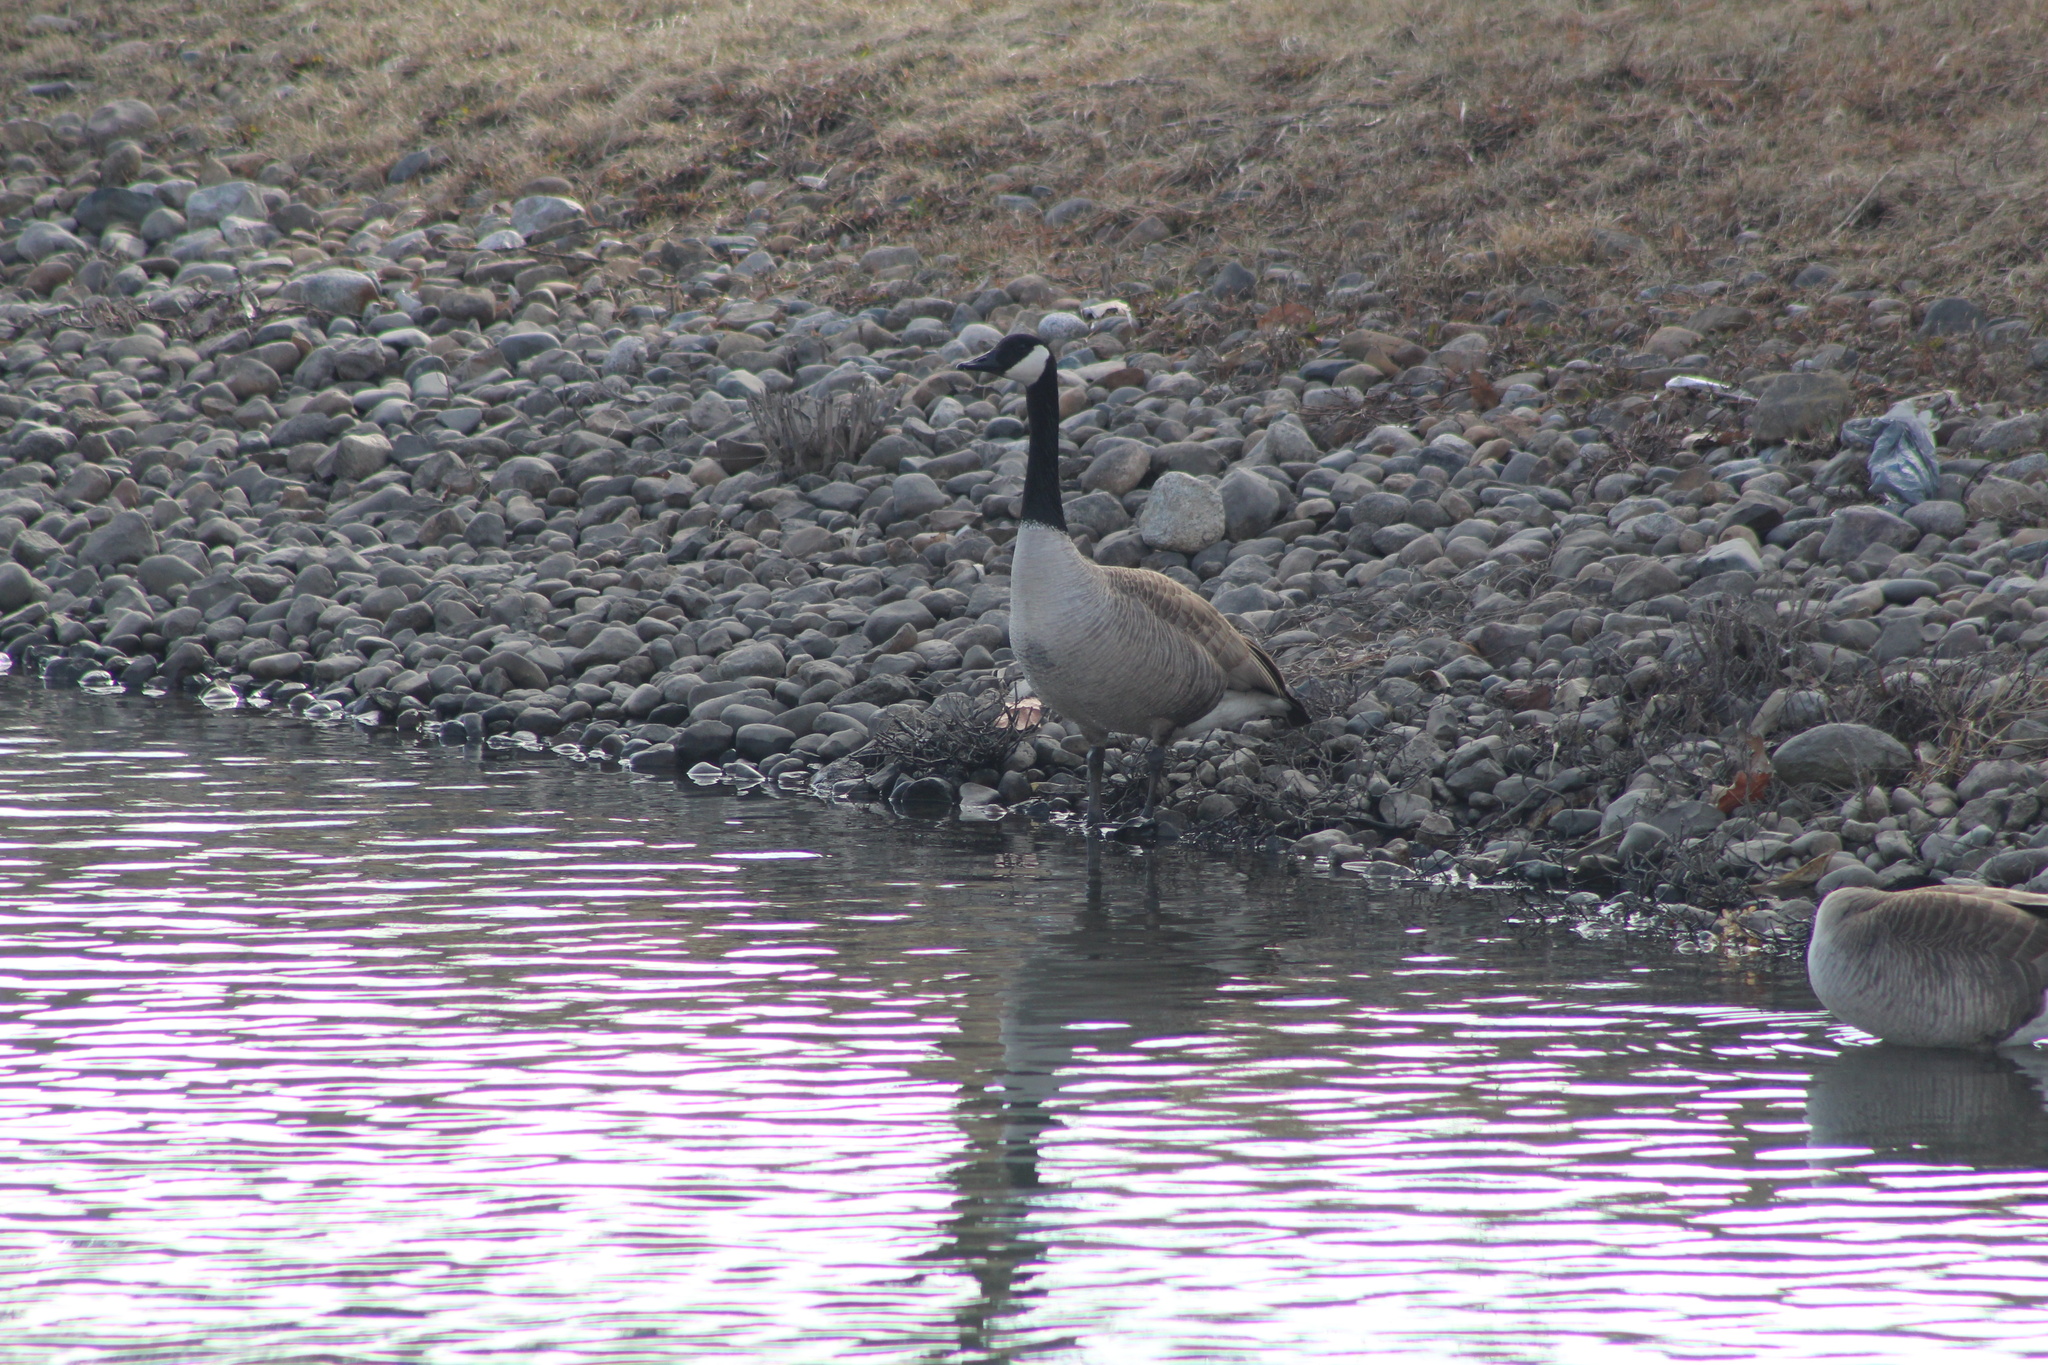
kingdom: Animalia
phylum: Chordata
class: Aves
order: Anseriformes
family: Anatidae
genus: Branta
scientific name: Branta canadensis
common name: Canada goose
